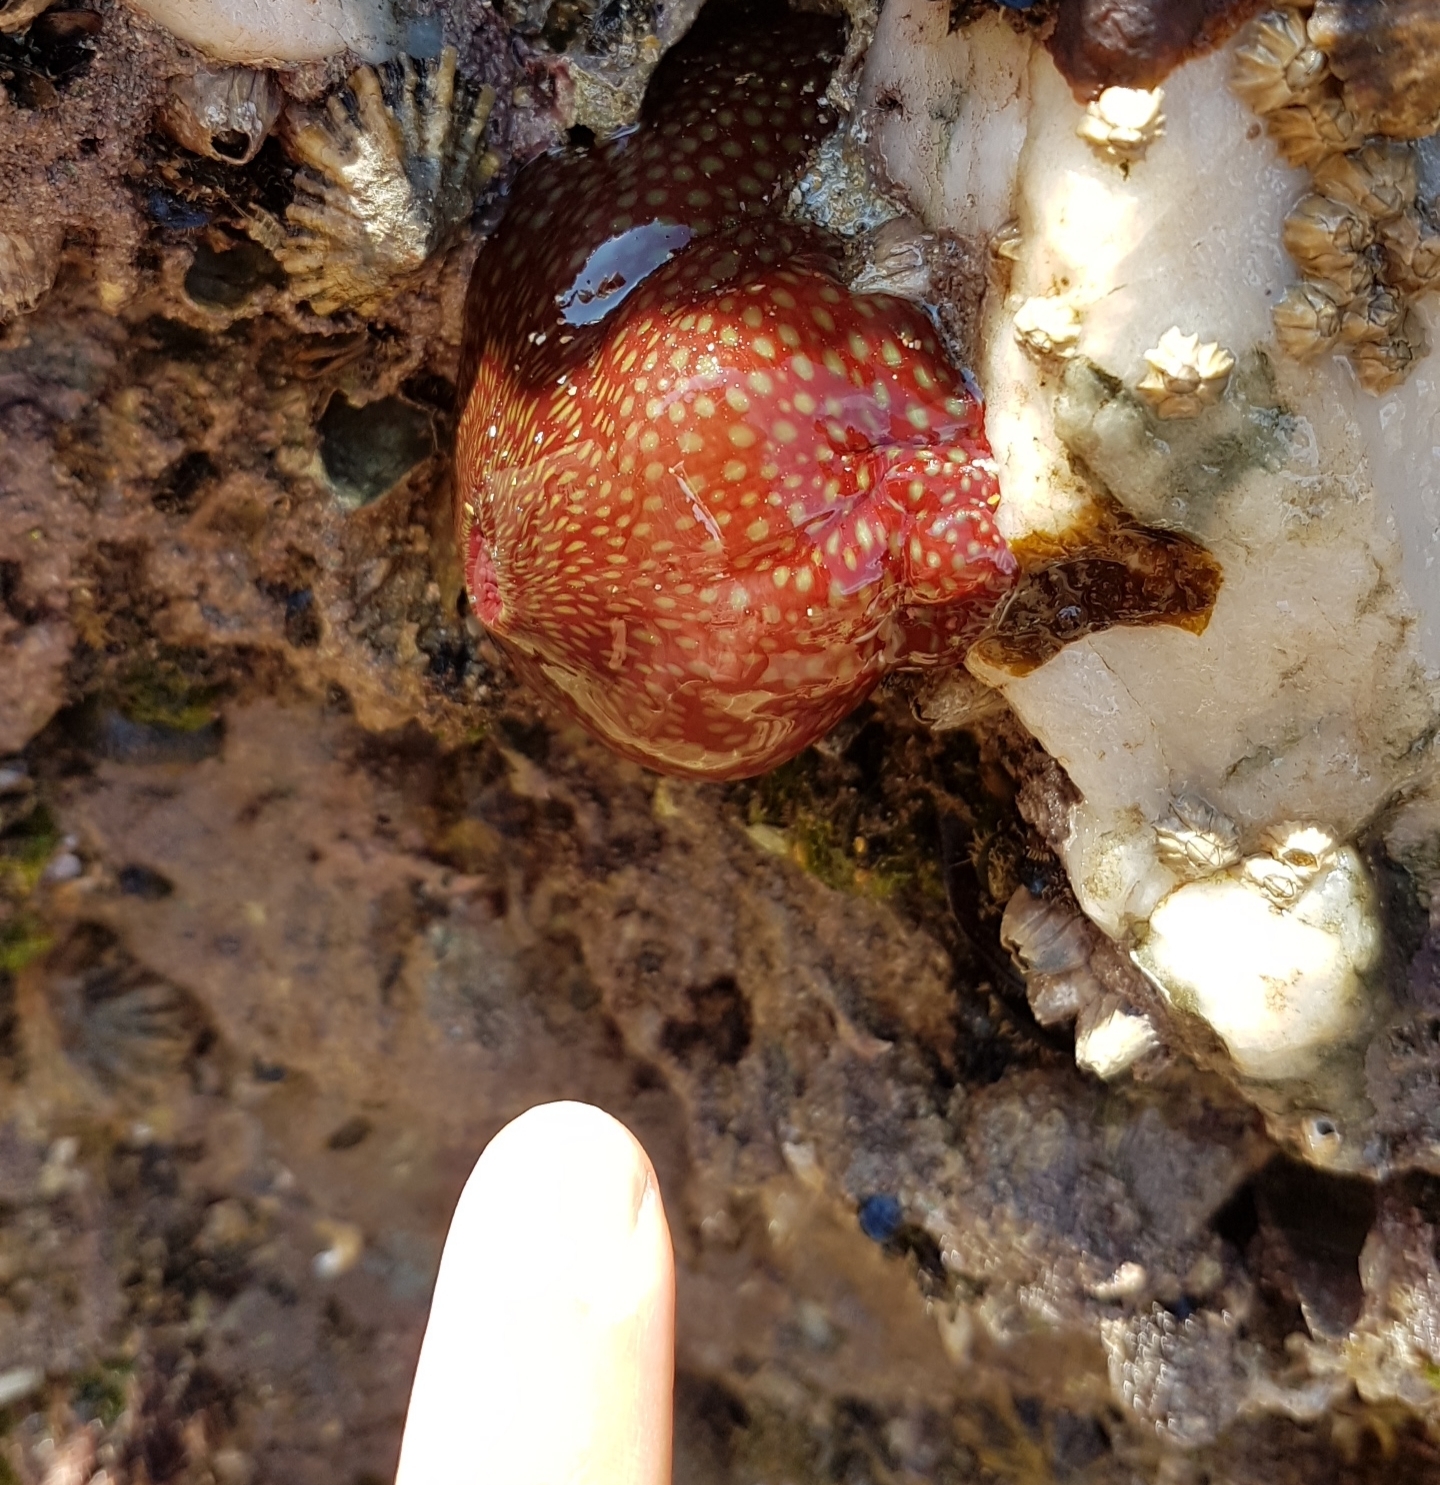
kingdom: Animalia
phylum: Cnidaria
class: Anthozoa
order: Actiniaria
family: Actiniidae
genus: Actinia
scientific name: Actinia fragacea
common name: Strawberry anemone
